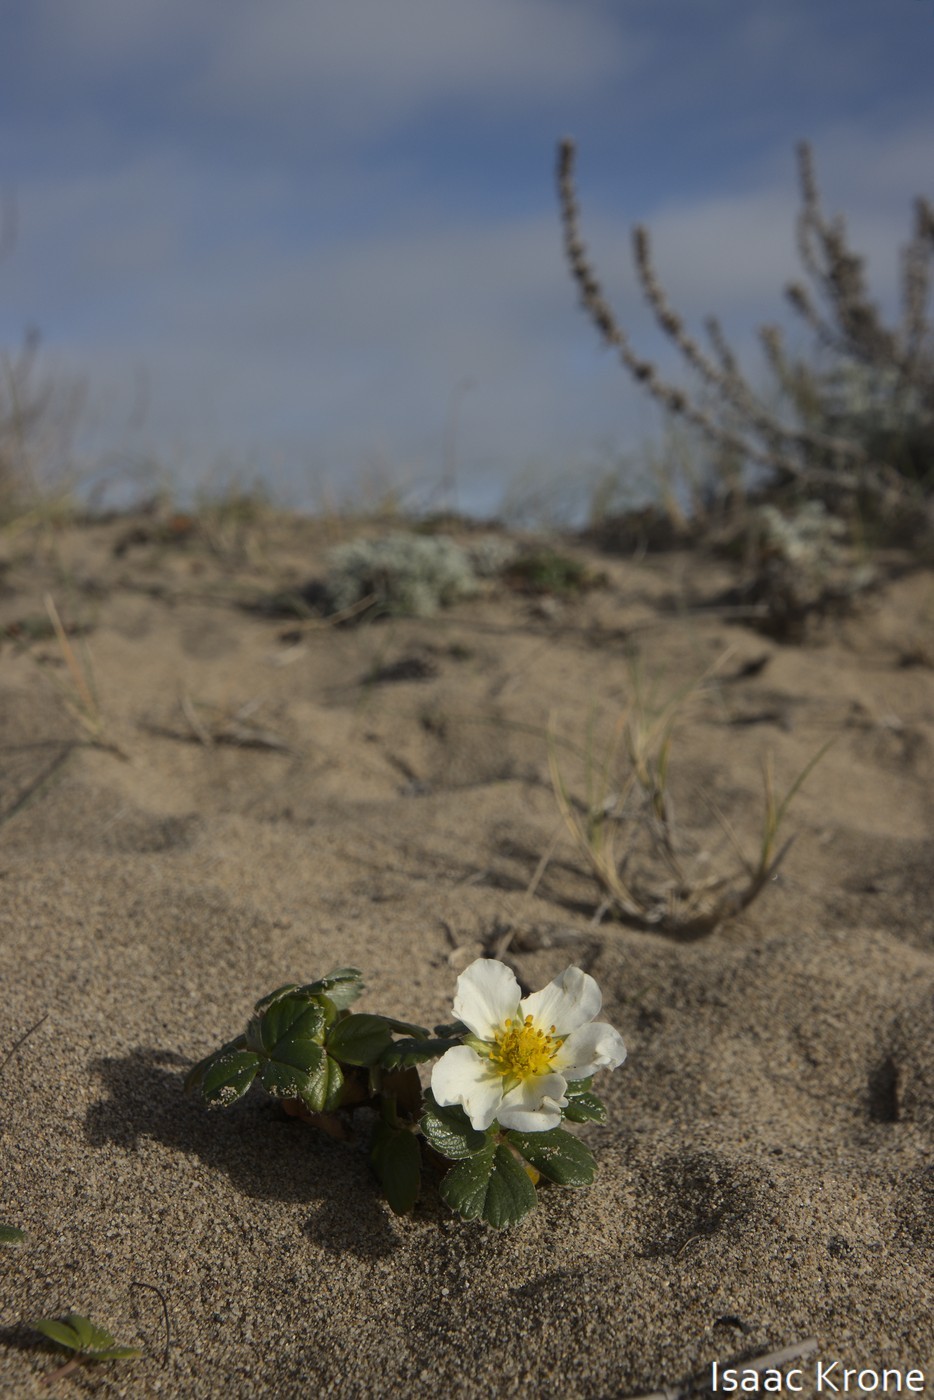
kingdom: Plantae
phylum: Tracheophyta
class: Magnoliopsida
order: Rosales
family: Rosaceae
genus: Fragaria
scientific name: Fragaria chiloensis
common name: Beach strawberry
